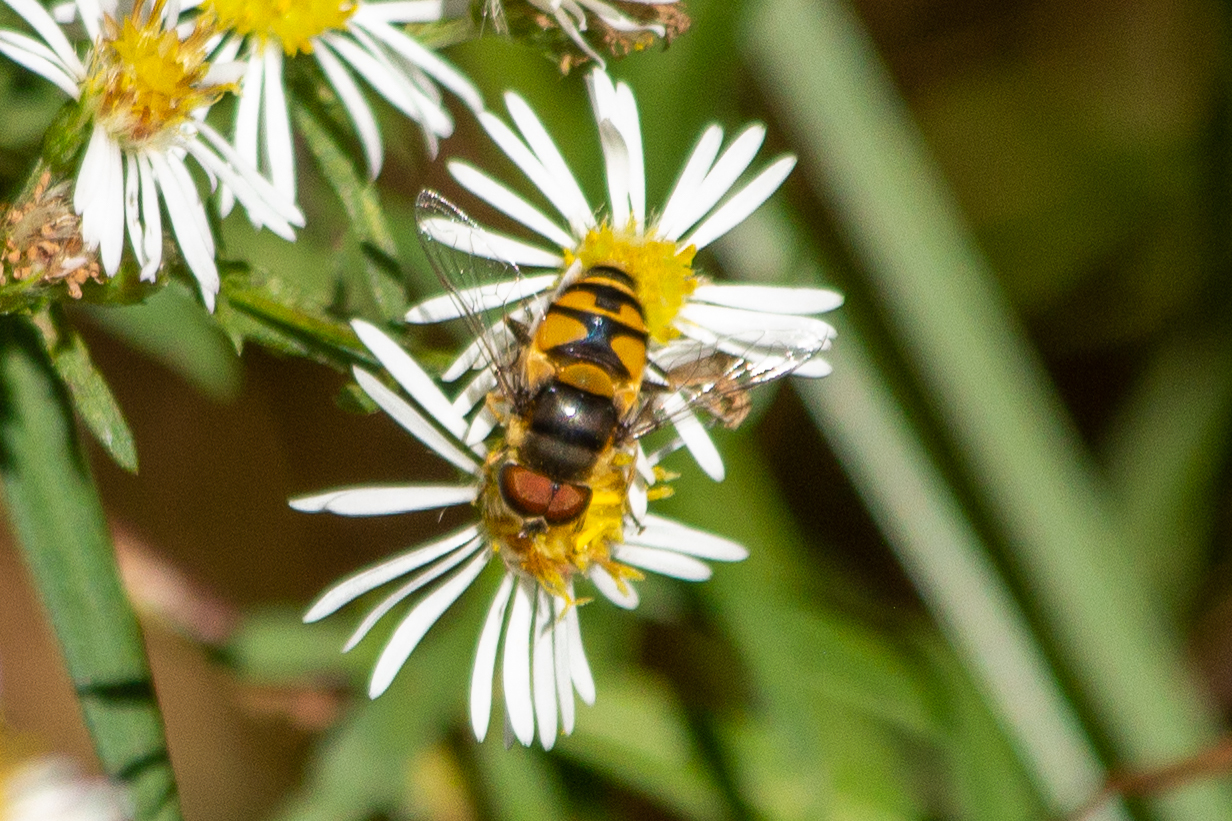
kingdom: Animalia
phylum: Arthropoda
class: Insecta
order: Diptera
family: Syrphidae
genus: Eristalis
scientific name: Eristalis transversa
